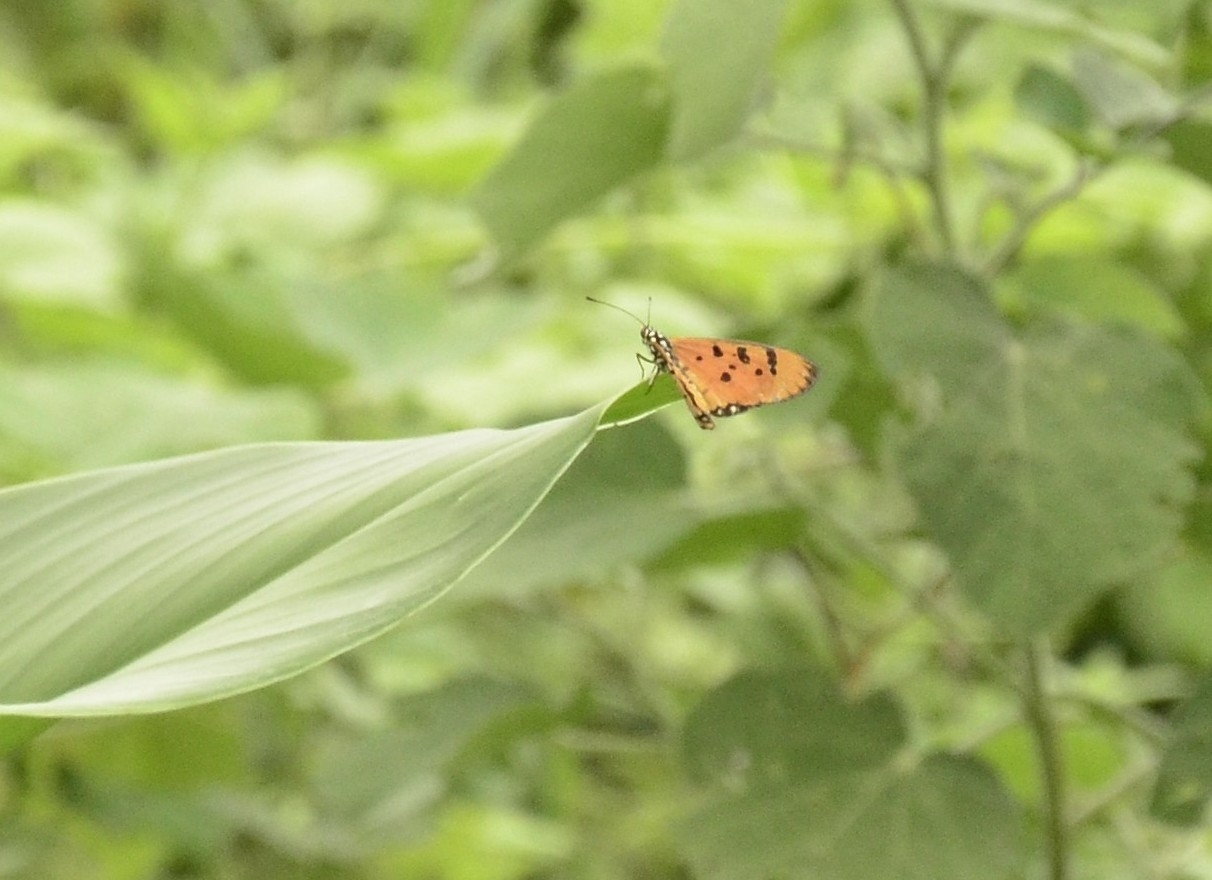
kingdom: Animalia
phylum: Arthropoda
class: Insecta
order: Lepidoptera
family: Nymphalidae
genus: Acraea
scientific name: Acraea terpsicore
